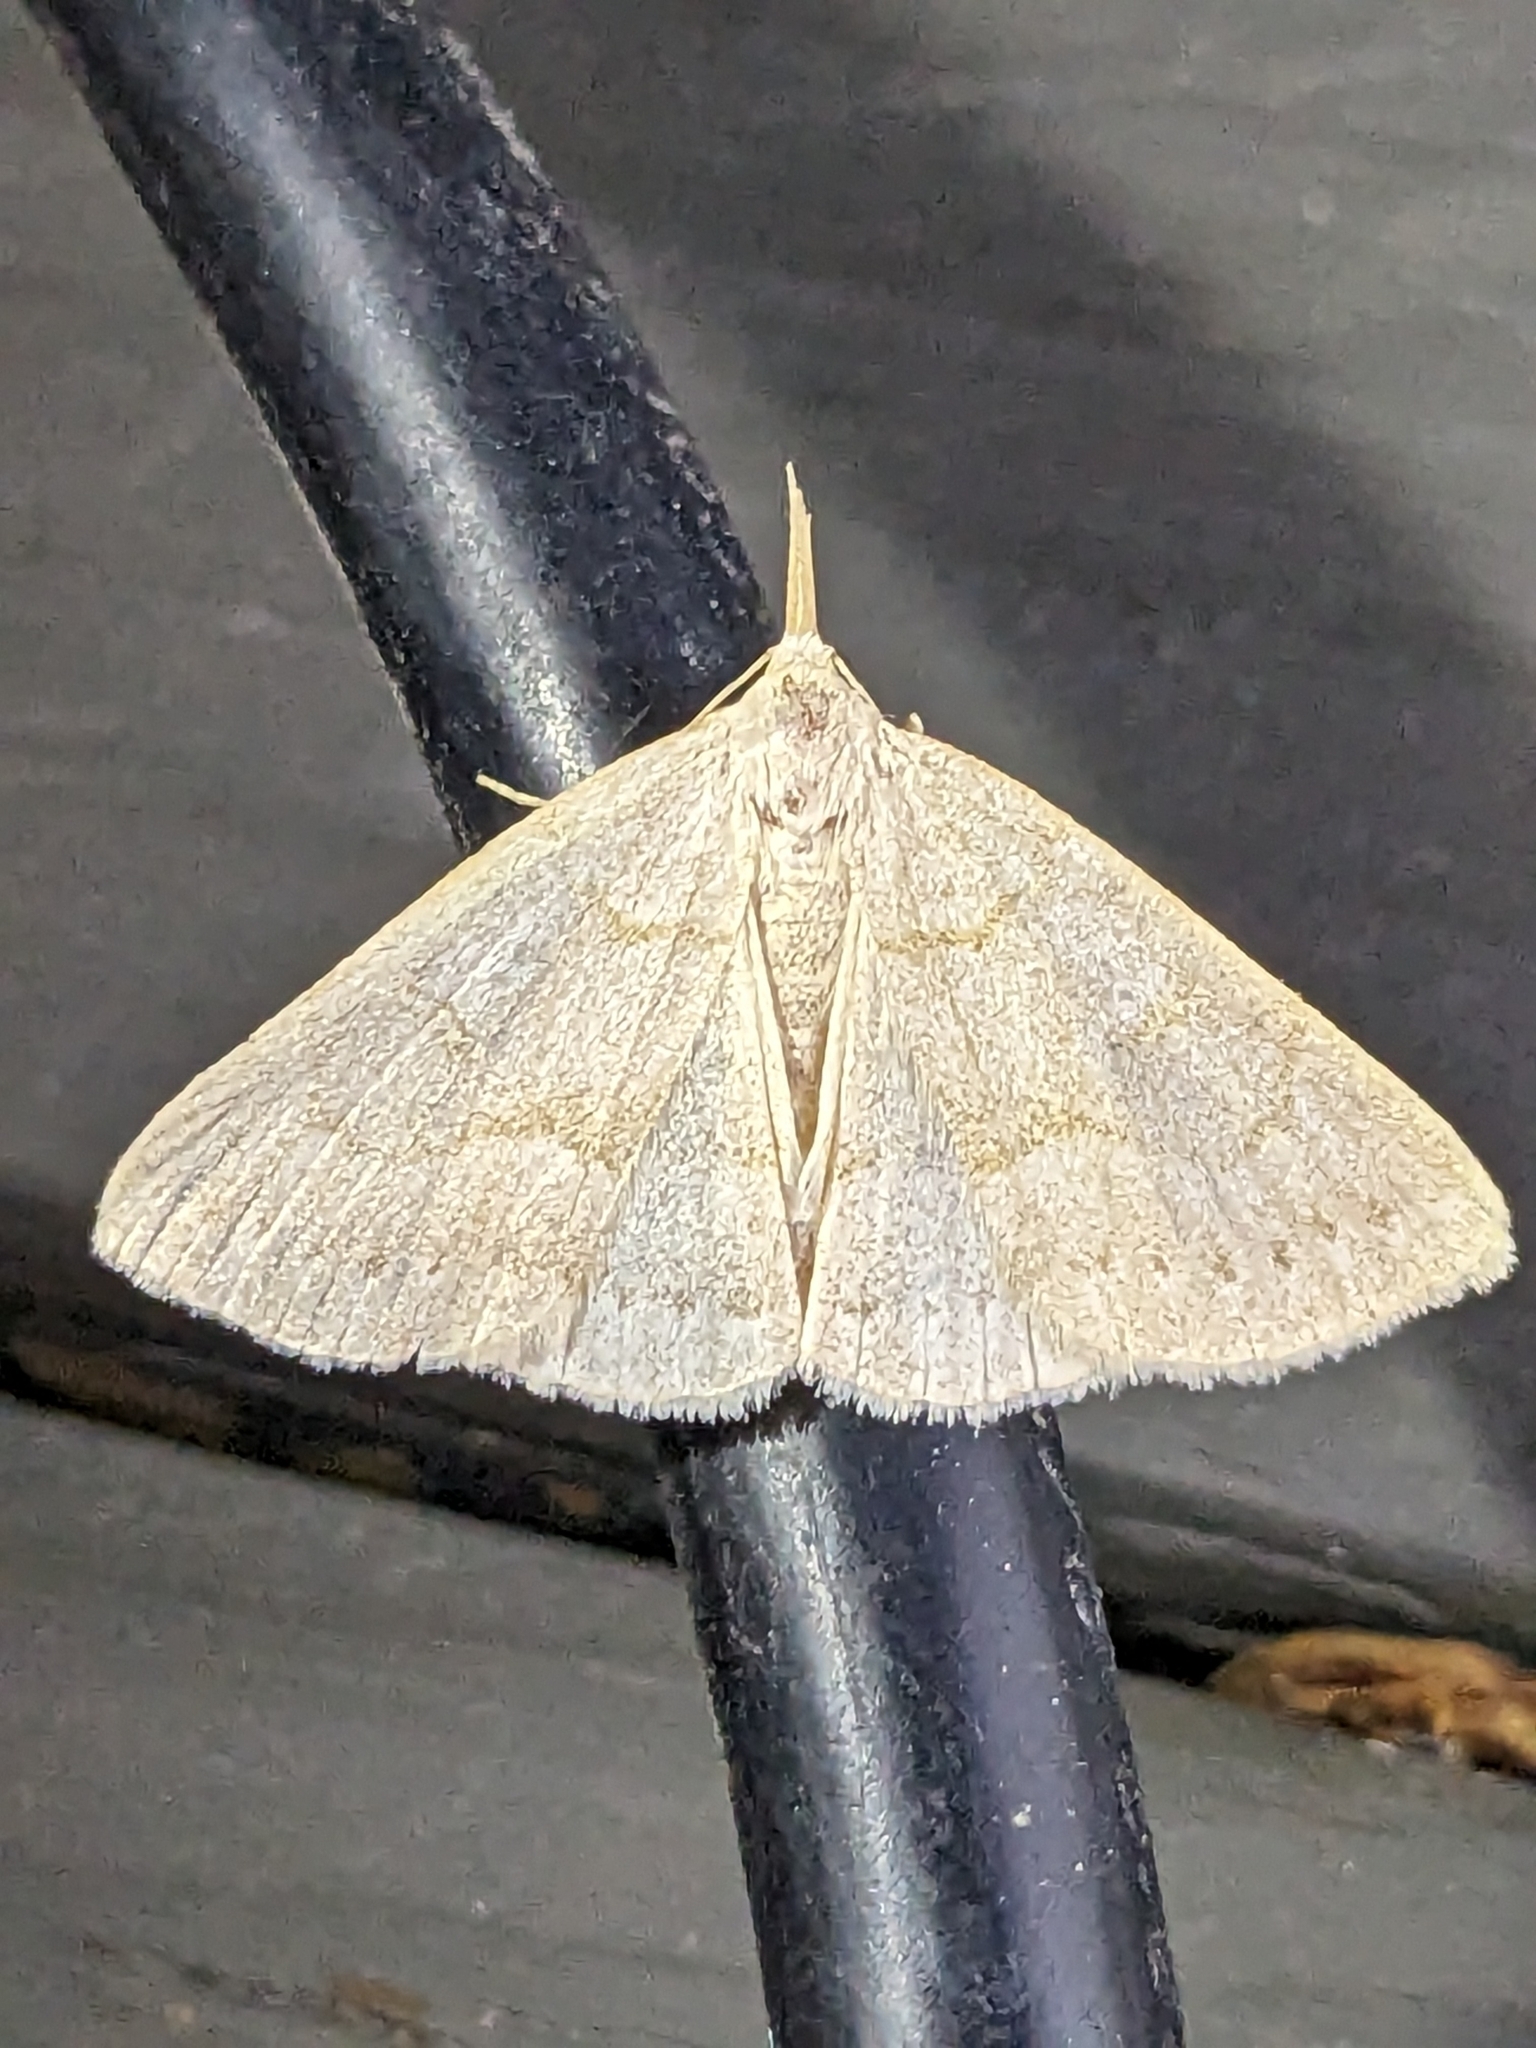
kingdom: Animalia
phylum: Arthropoda
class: Insecta
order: Lepidoptera
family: Erebidae
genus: Macrochilo
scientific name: Macrochilo morbidalis
